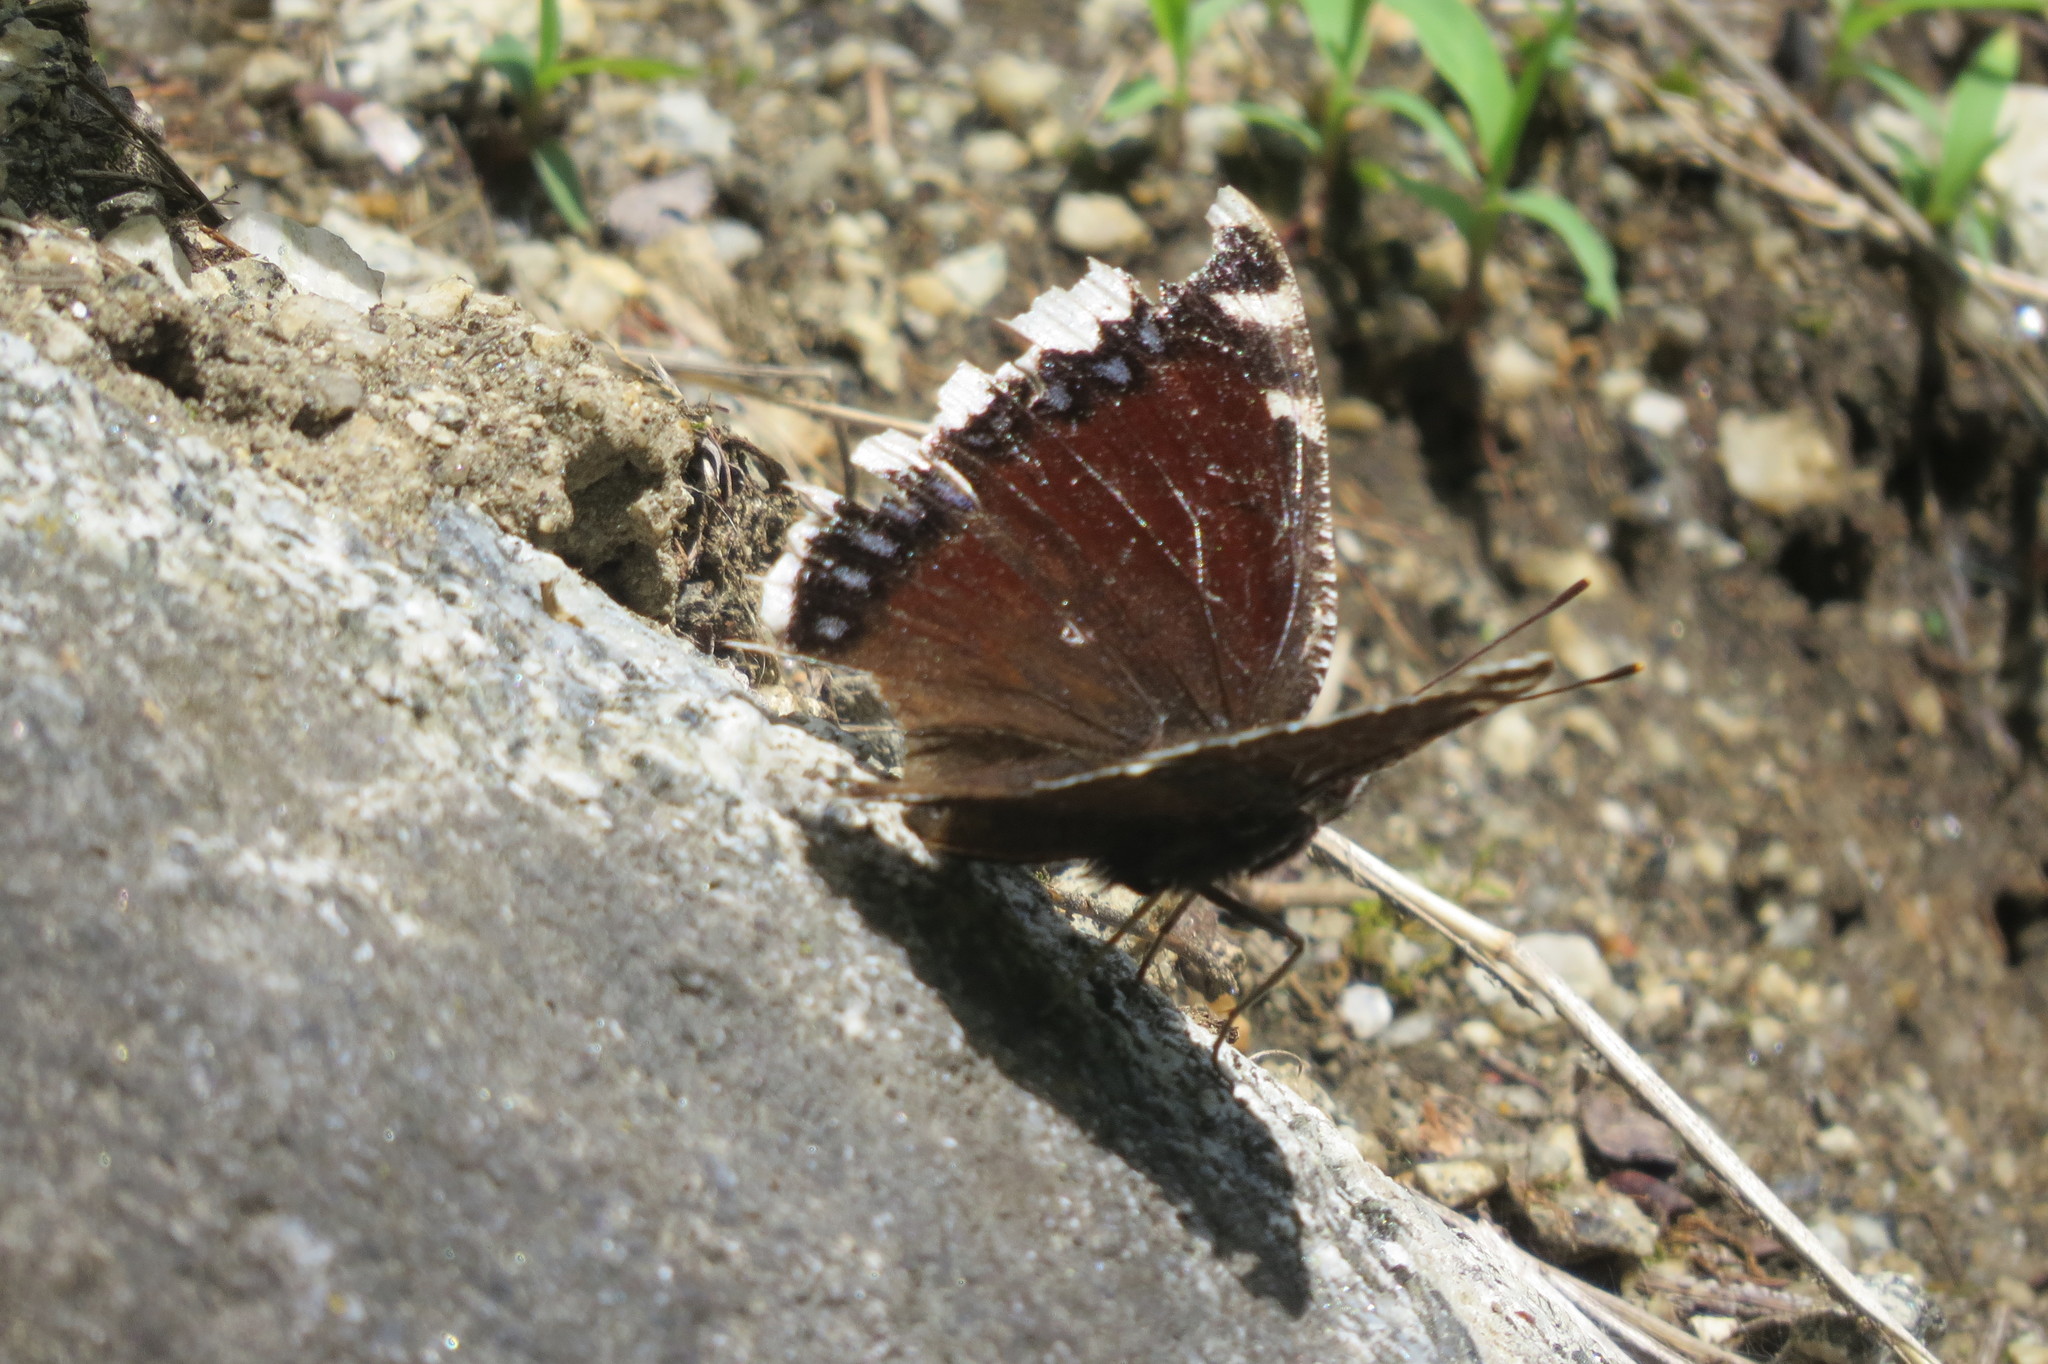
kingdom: Animalia
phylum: Arthropoda
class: Insecta
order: Lepidoptera
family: Nymphalidae
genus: Nymphalis
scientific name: Nymphalis antiopa
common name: Camberwell beauty
